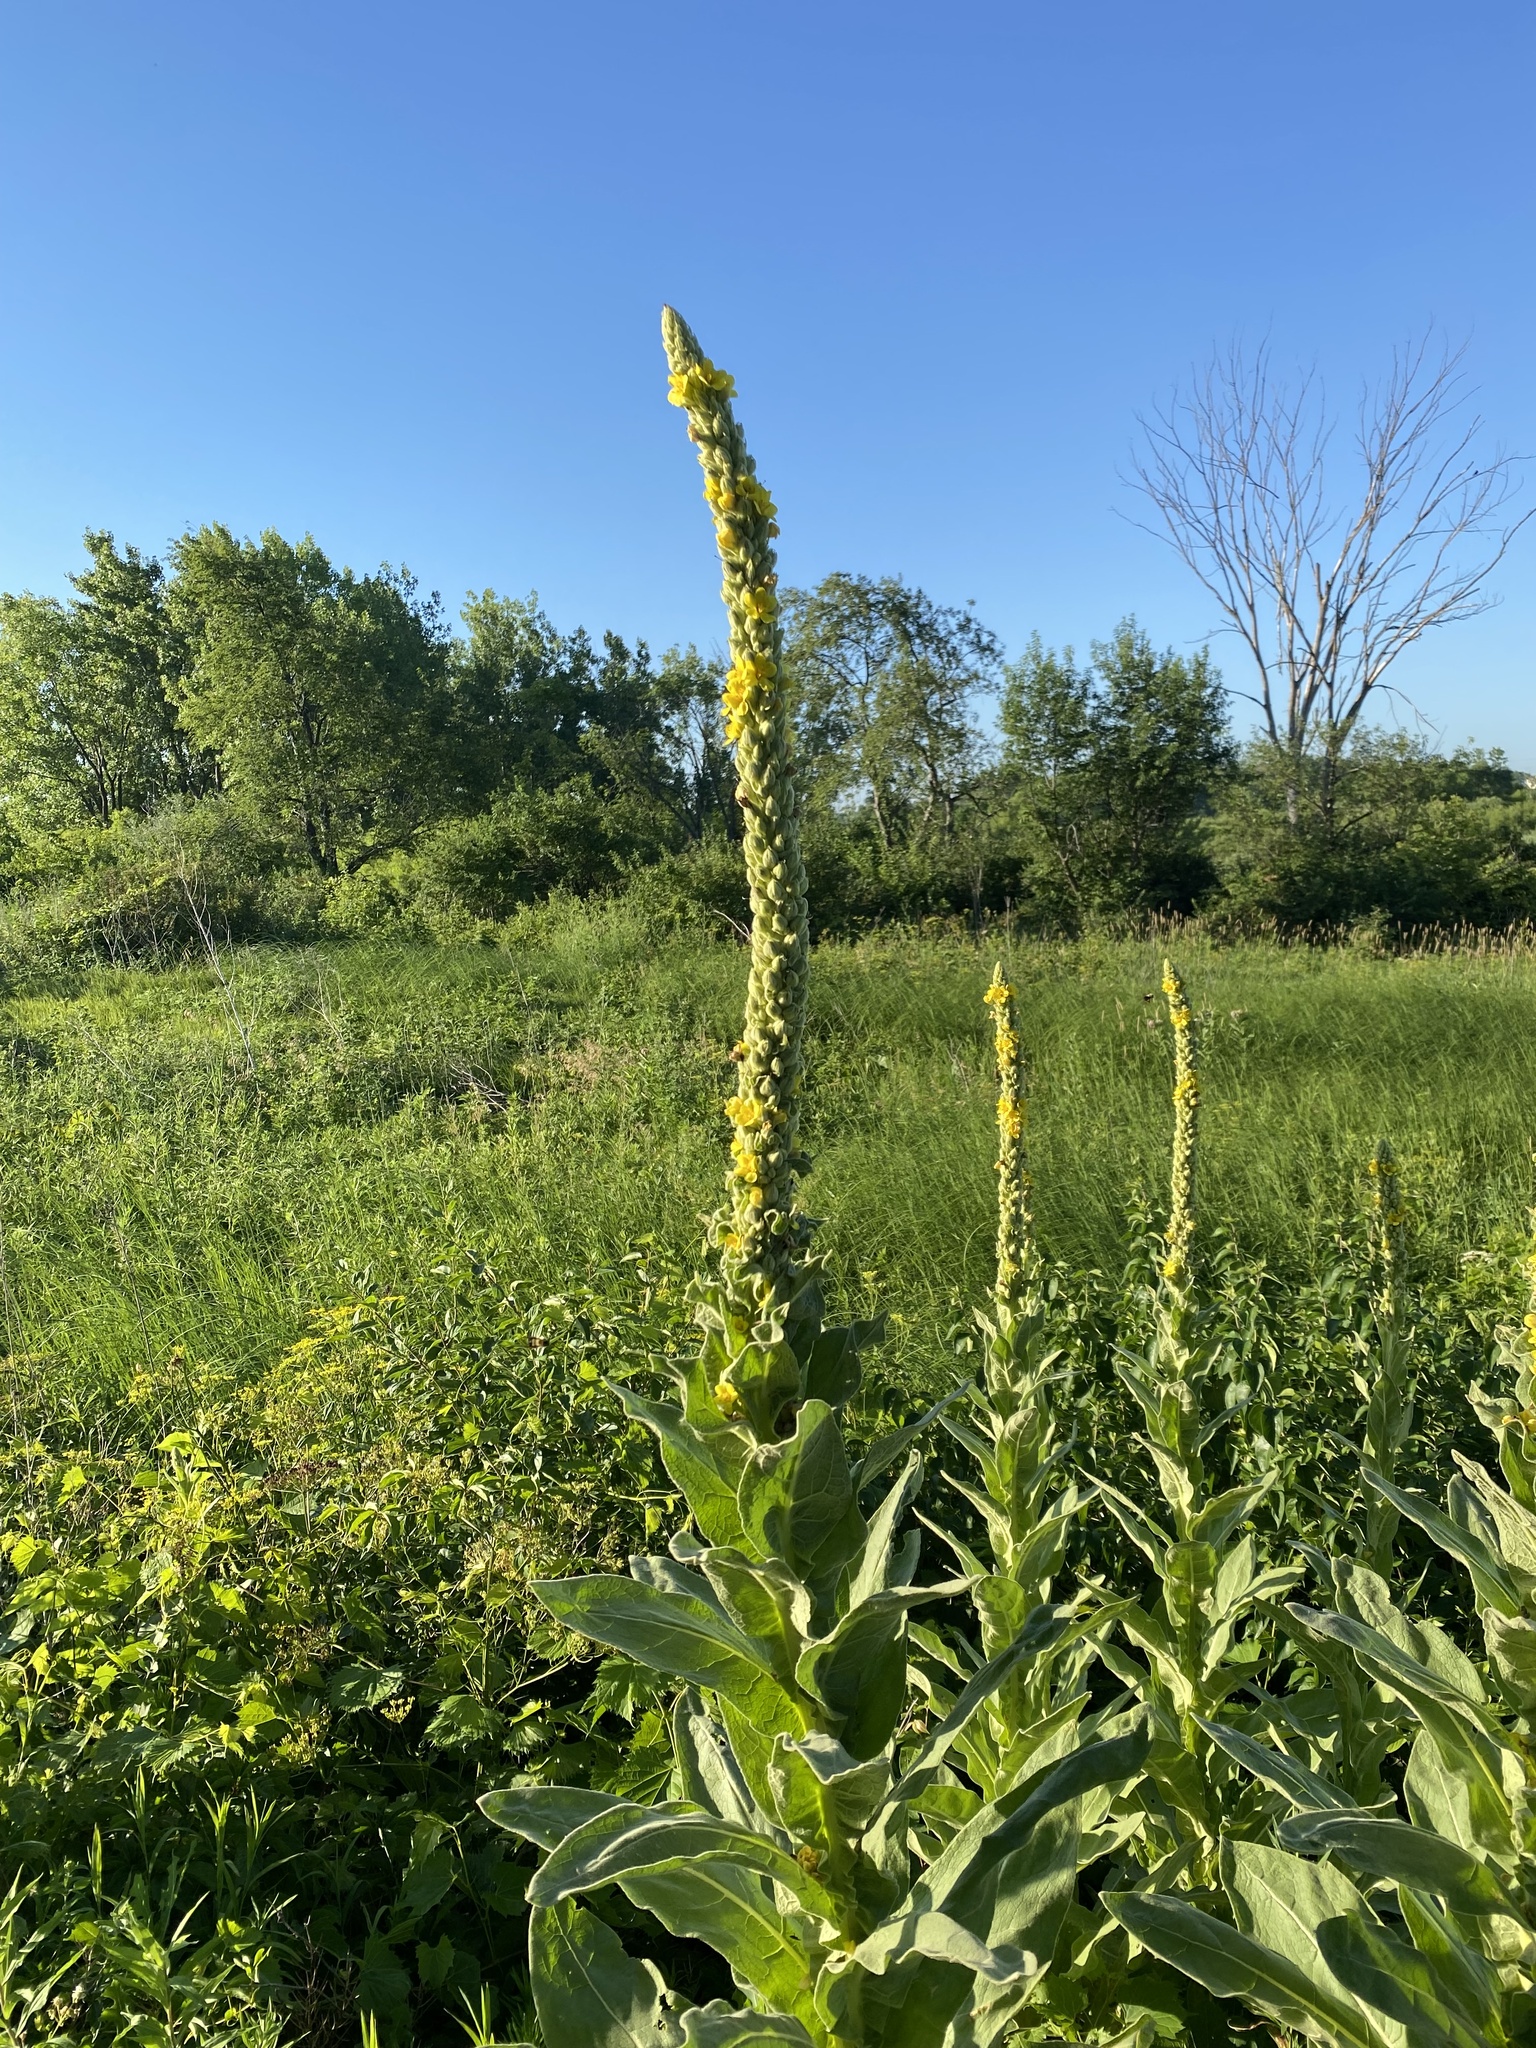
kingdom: Plantae
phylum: Tracheophyta
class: Magnoliopsida
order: Lamiales
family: Scrophulariaceae
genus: Verbascum
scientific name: Verbascum thapsus
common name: Common mullein
